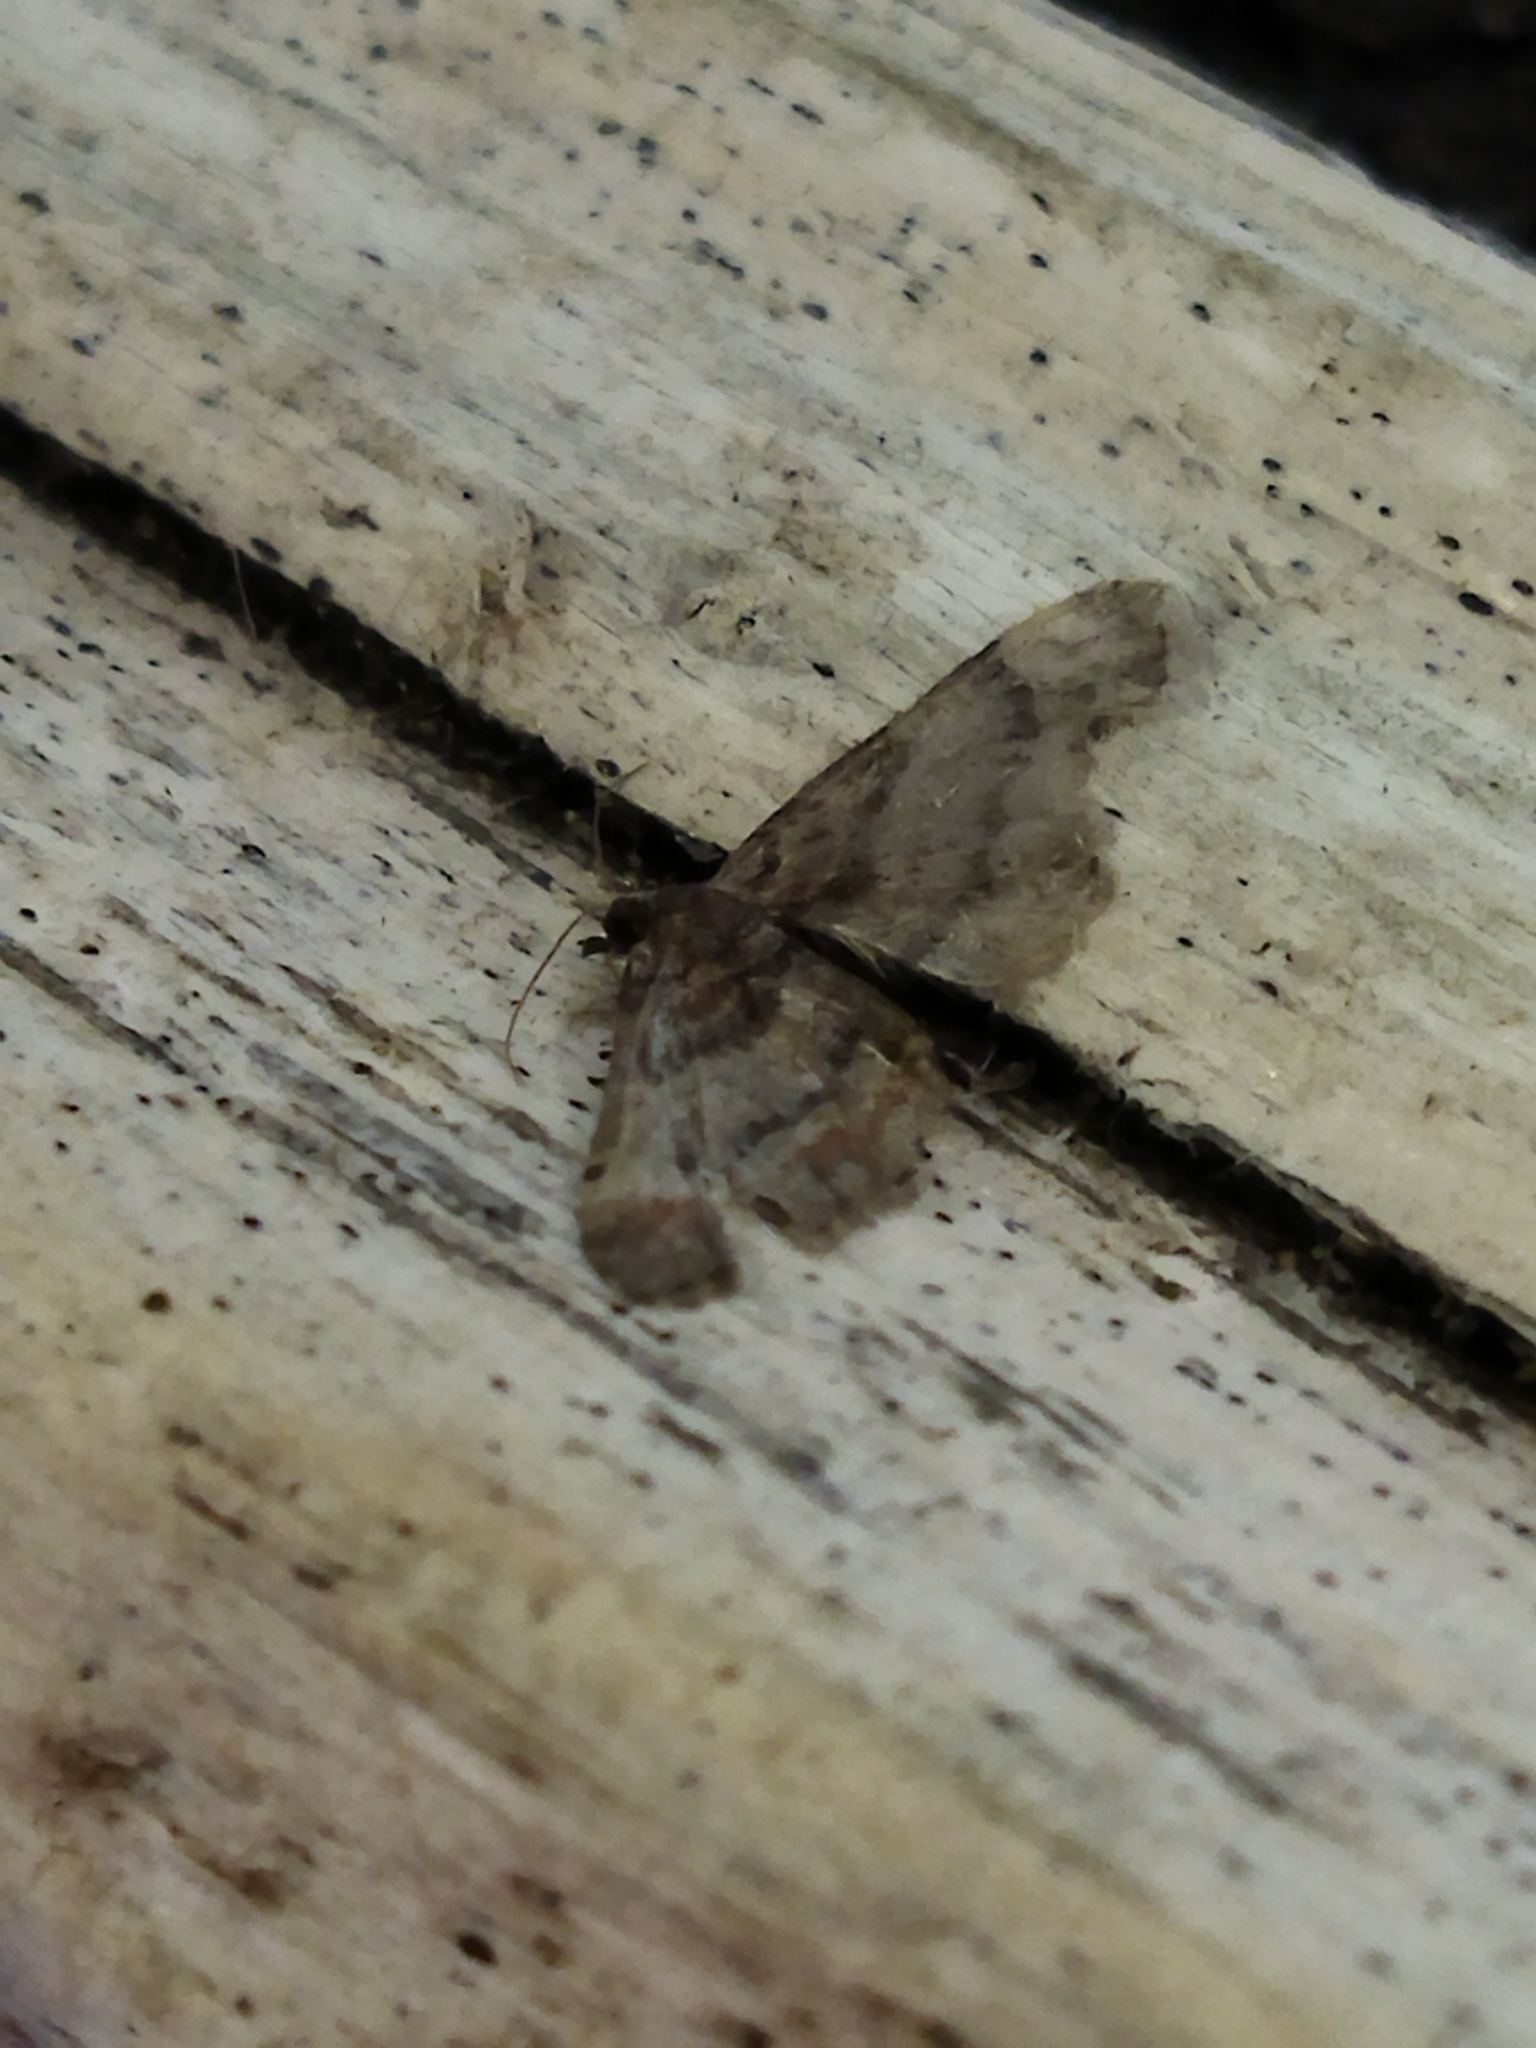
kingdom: Animalia
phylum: Arthropoda
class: Insecta
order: Lepidoptera
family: Geometridae
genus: Gymnoscelis
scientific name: Gymnoscelis rufifasciata
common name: Double-striped pug
